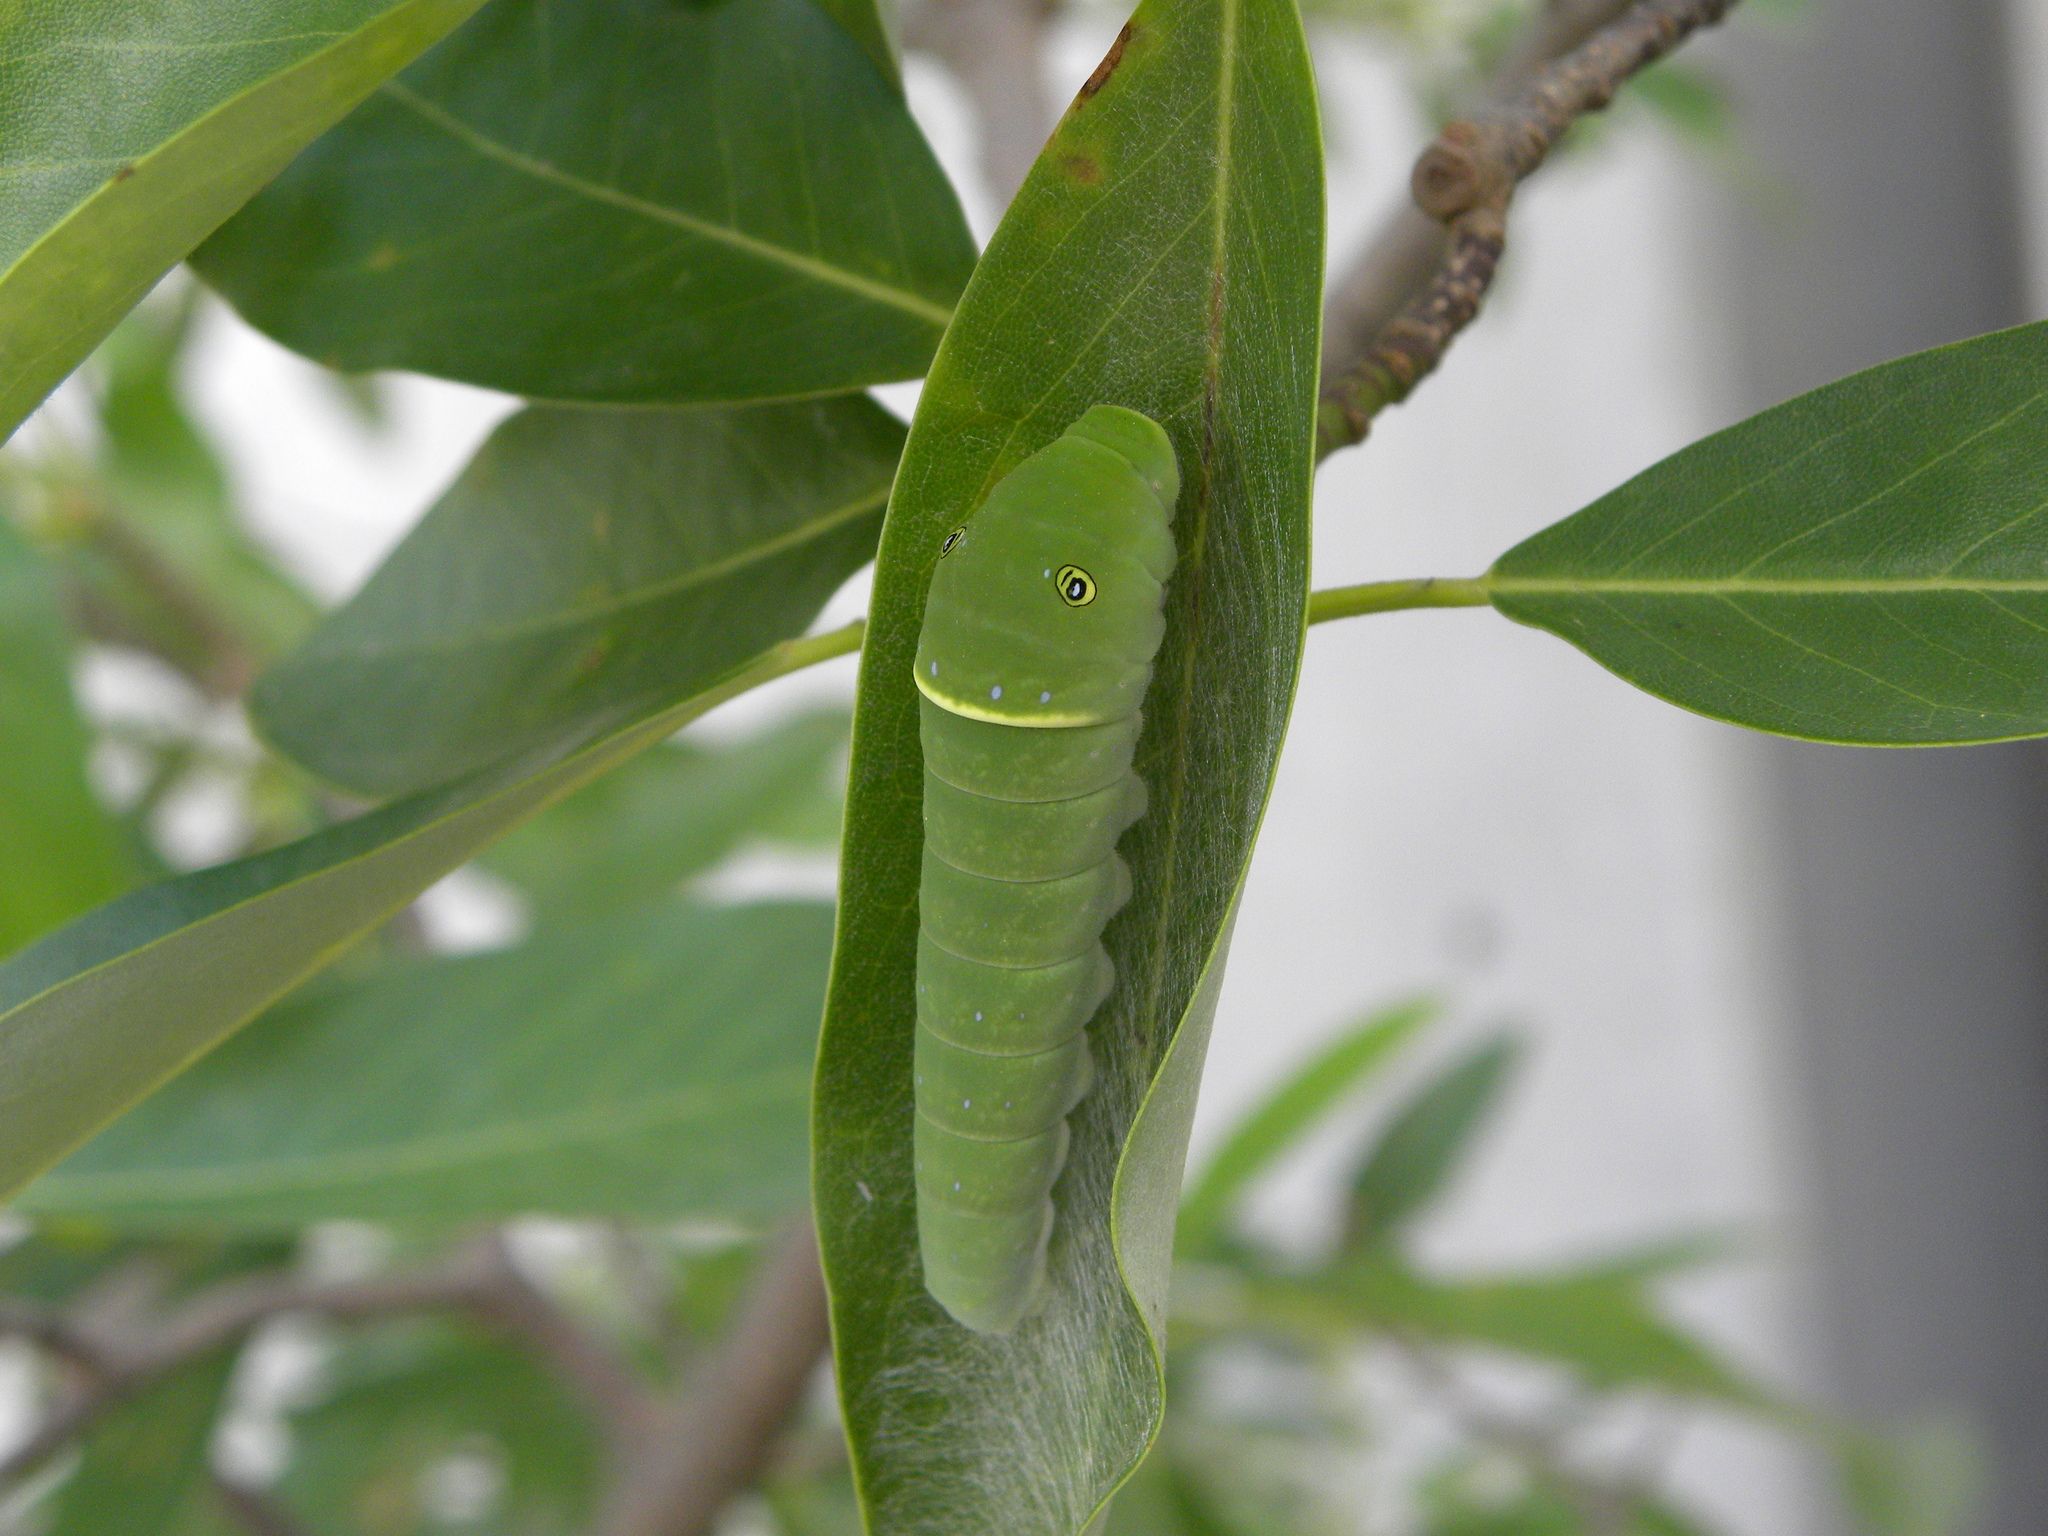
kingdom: Animalia
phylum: Arthropoda
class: Insecta
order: Lepidoptera
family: Papilionidae
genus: Papilio
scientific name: Papilio glaucus
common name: Tiger swallowtail
